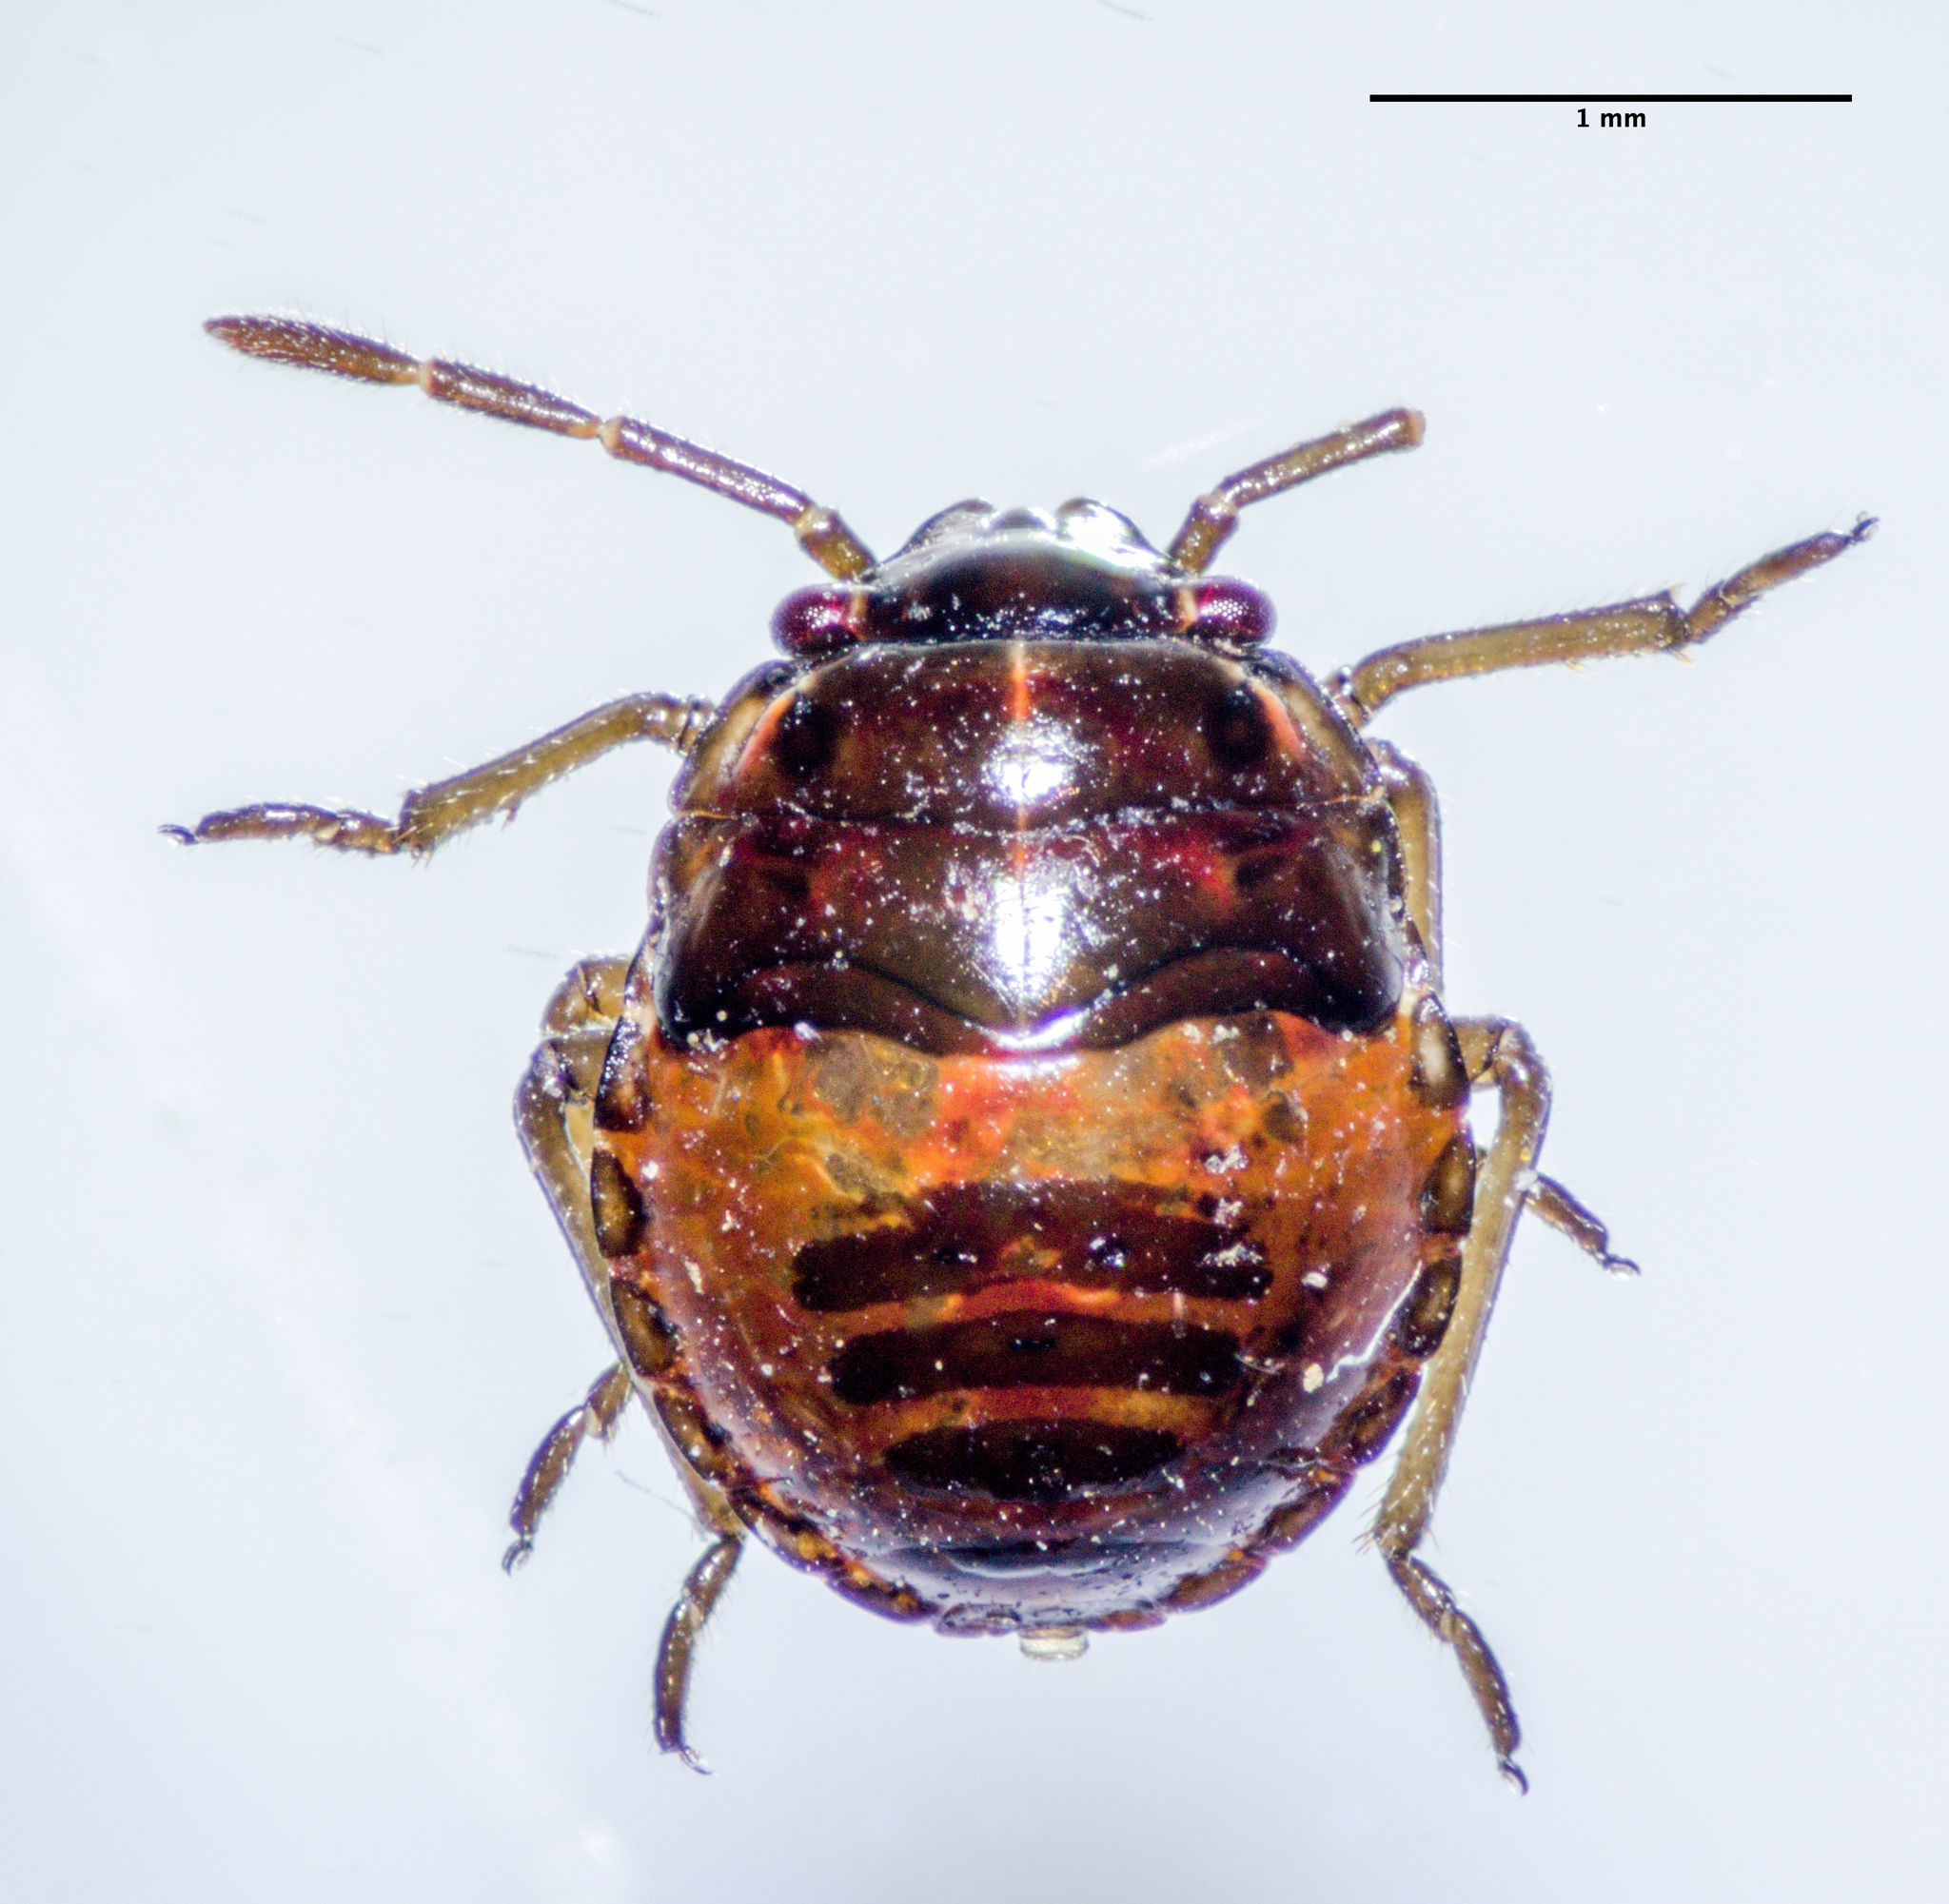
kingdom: Animalia
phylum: Arthropoda
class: Insecta
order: Hemiptera
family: Pentatomidae
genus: Bagrada
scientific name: Bagrada hilaris
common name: Bagrada bug
